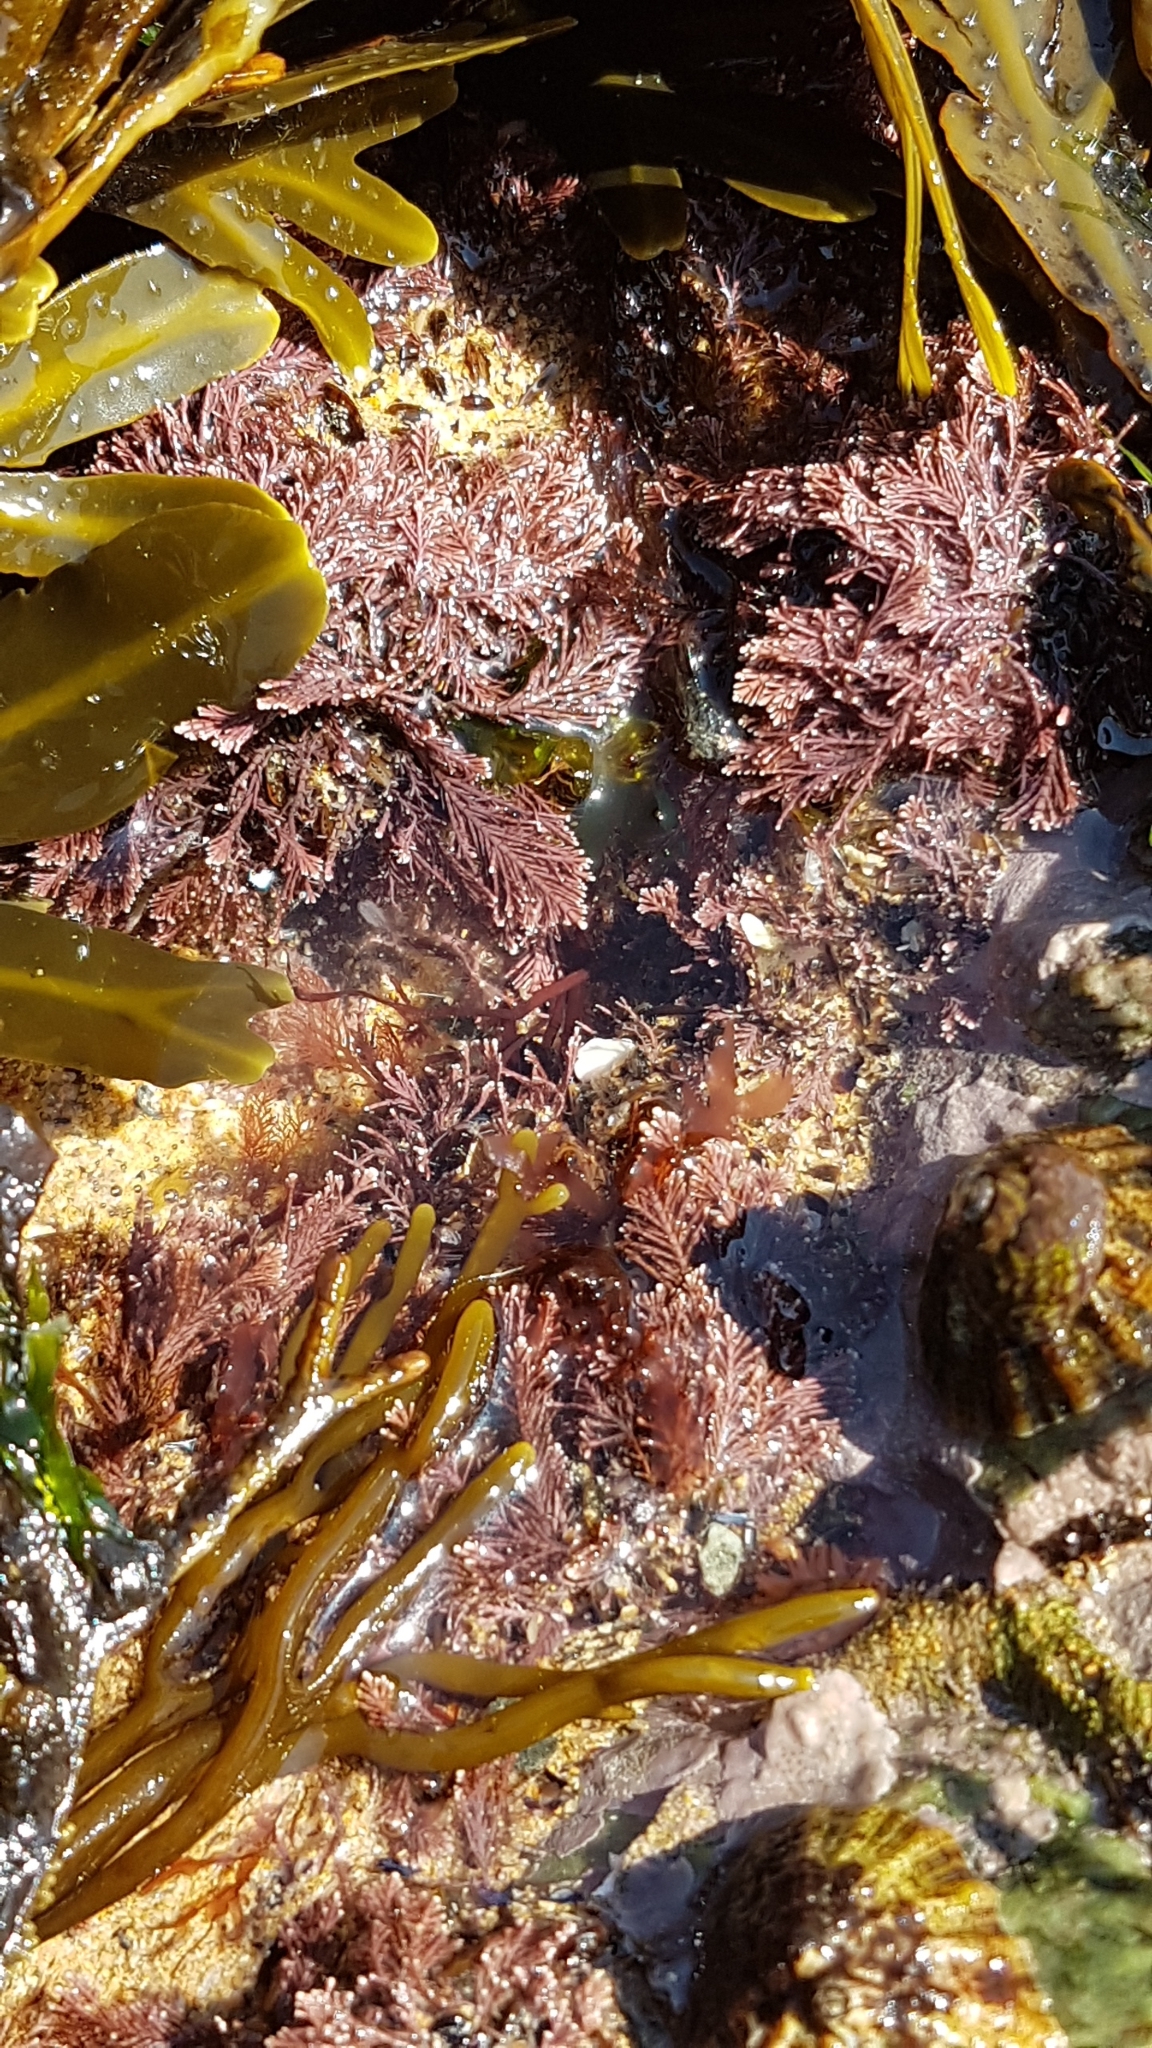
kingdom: Plantae
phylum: Rhodophyta
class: Florideophyceae
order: Corallinales
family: Corallinaceae
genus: Corallina
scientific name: Corallina officinalis
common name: Coral weed
